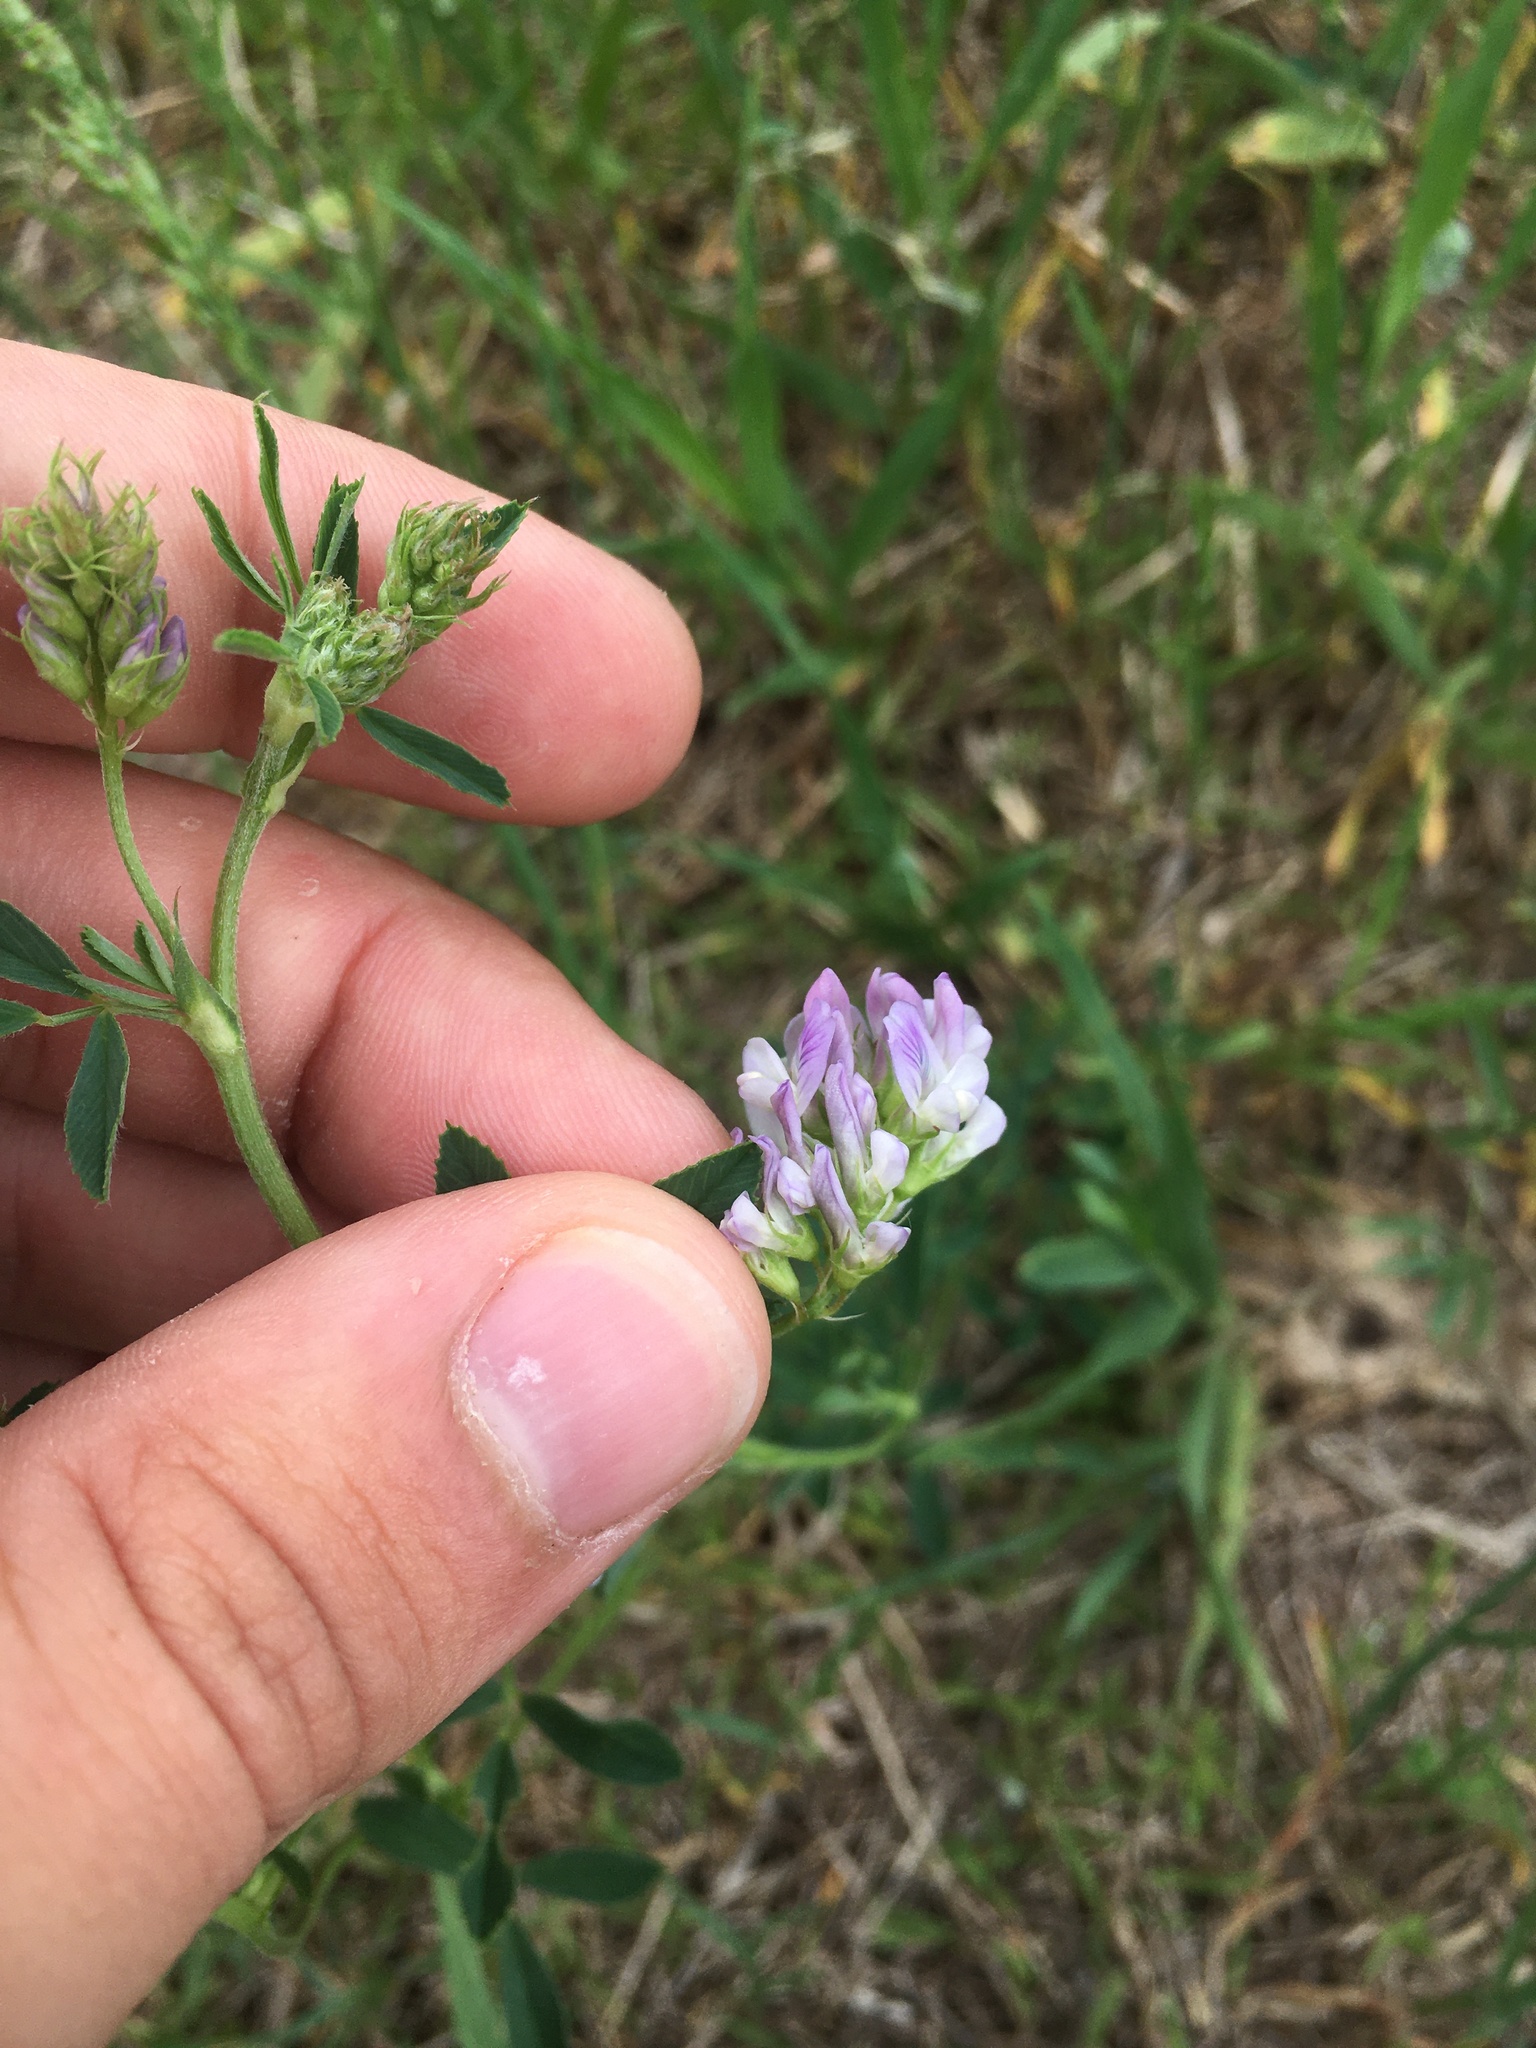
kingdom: Plantae
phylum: Tracheophyta
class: Magnoliopsida
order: Fabales
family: Fabaceae
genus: Medicago
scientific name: Medicago sativa
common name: Alfalfa
